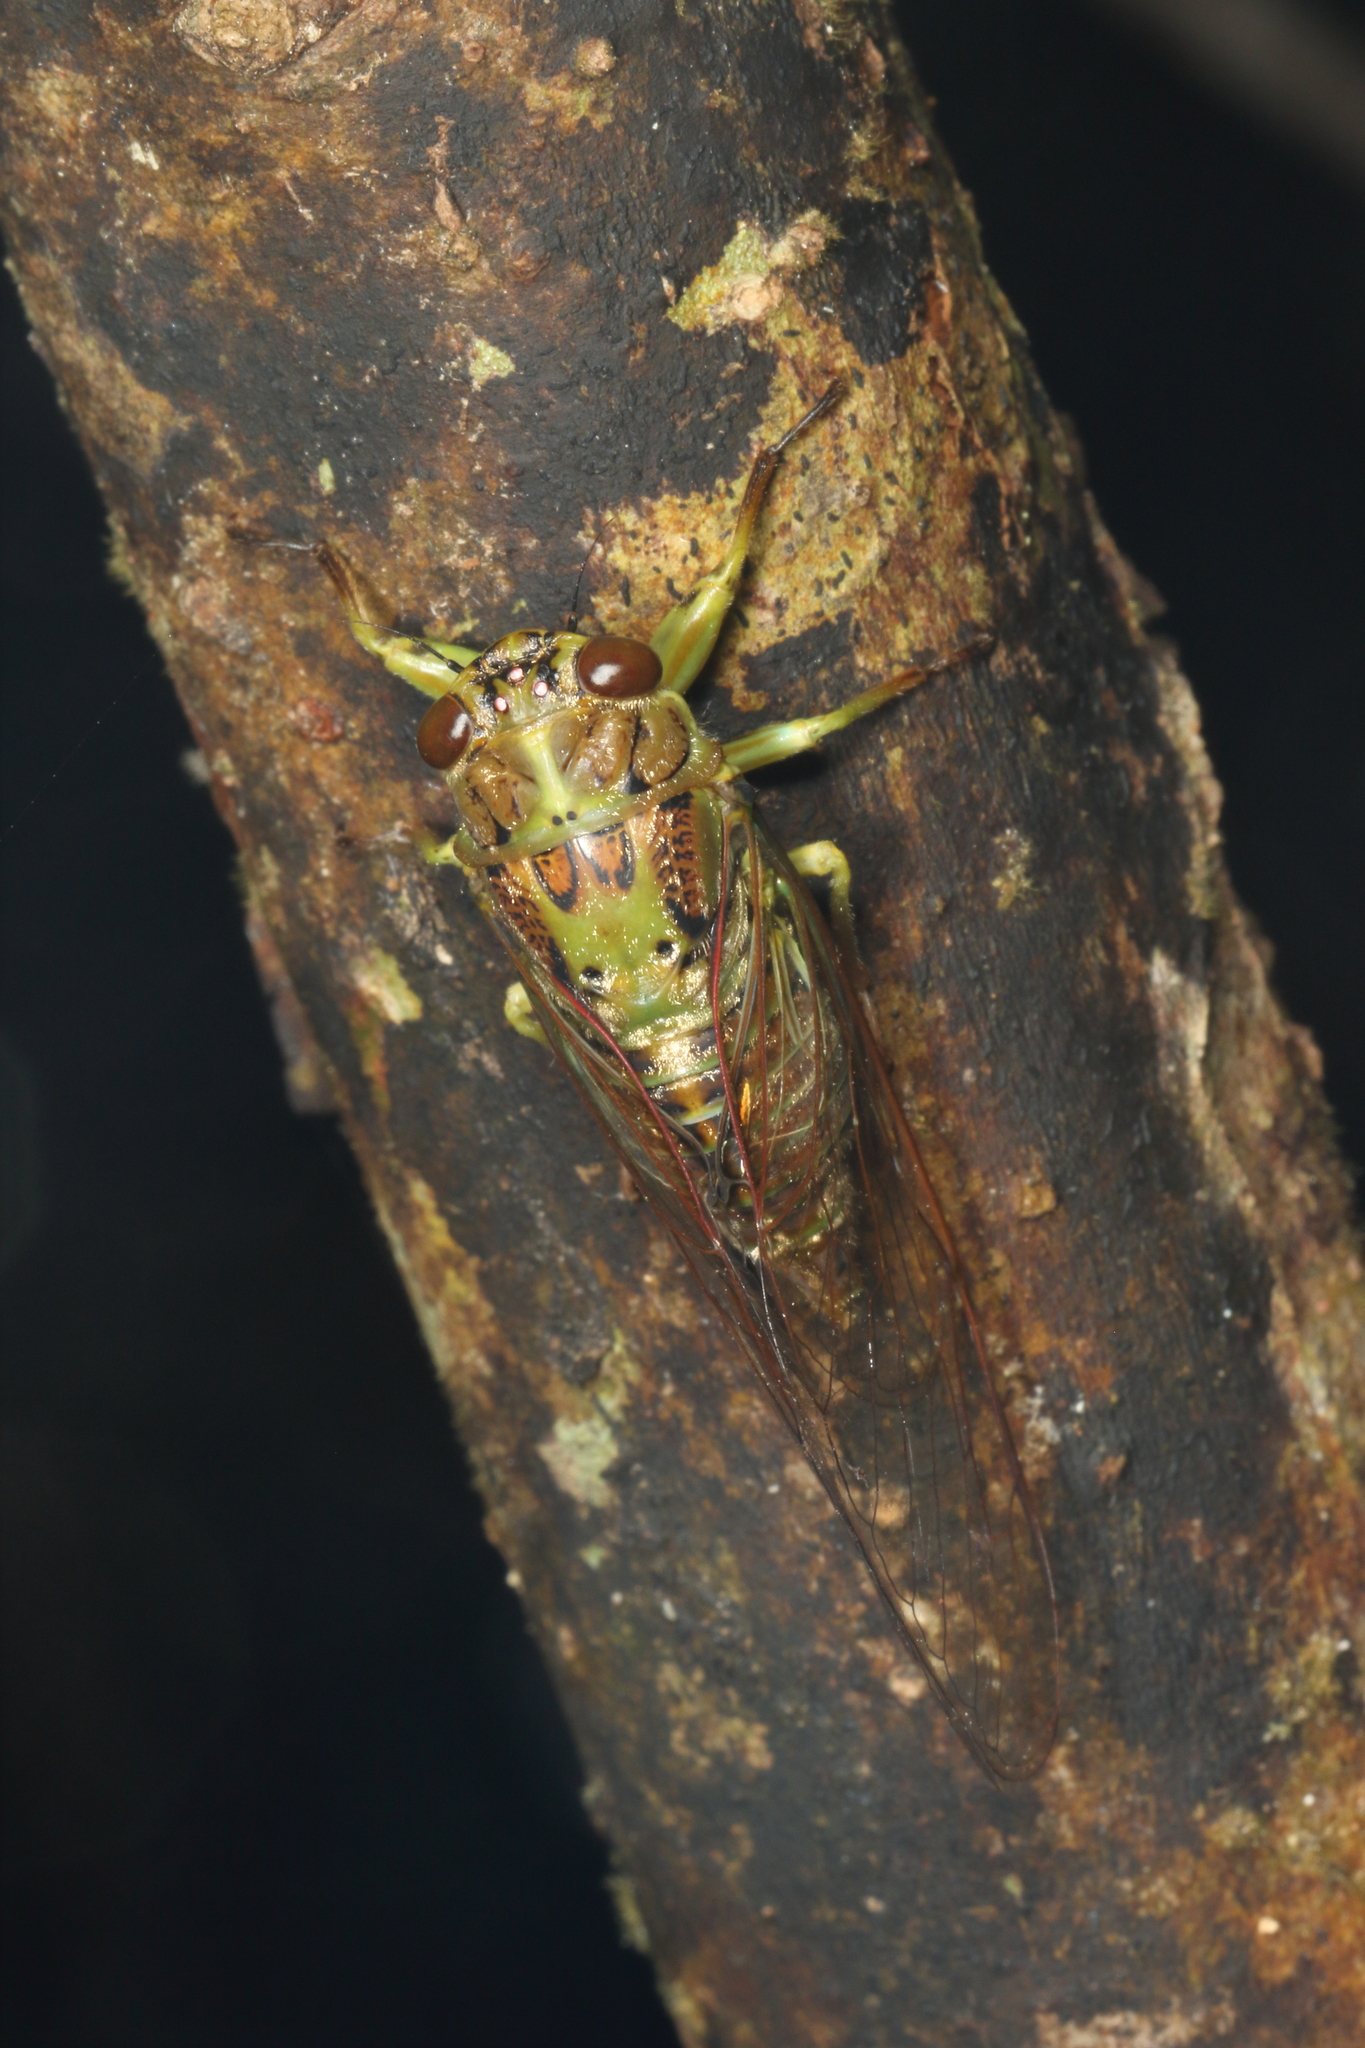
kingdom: Animalia
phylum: Arthropoda
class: Insecta
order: Hemiptera
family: Cicadidae
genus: Kikihia
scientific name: Kikihia scutellaris
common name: Lesser bronze cicada
